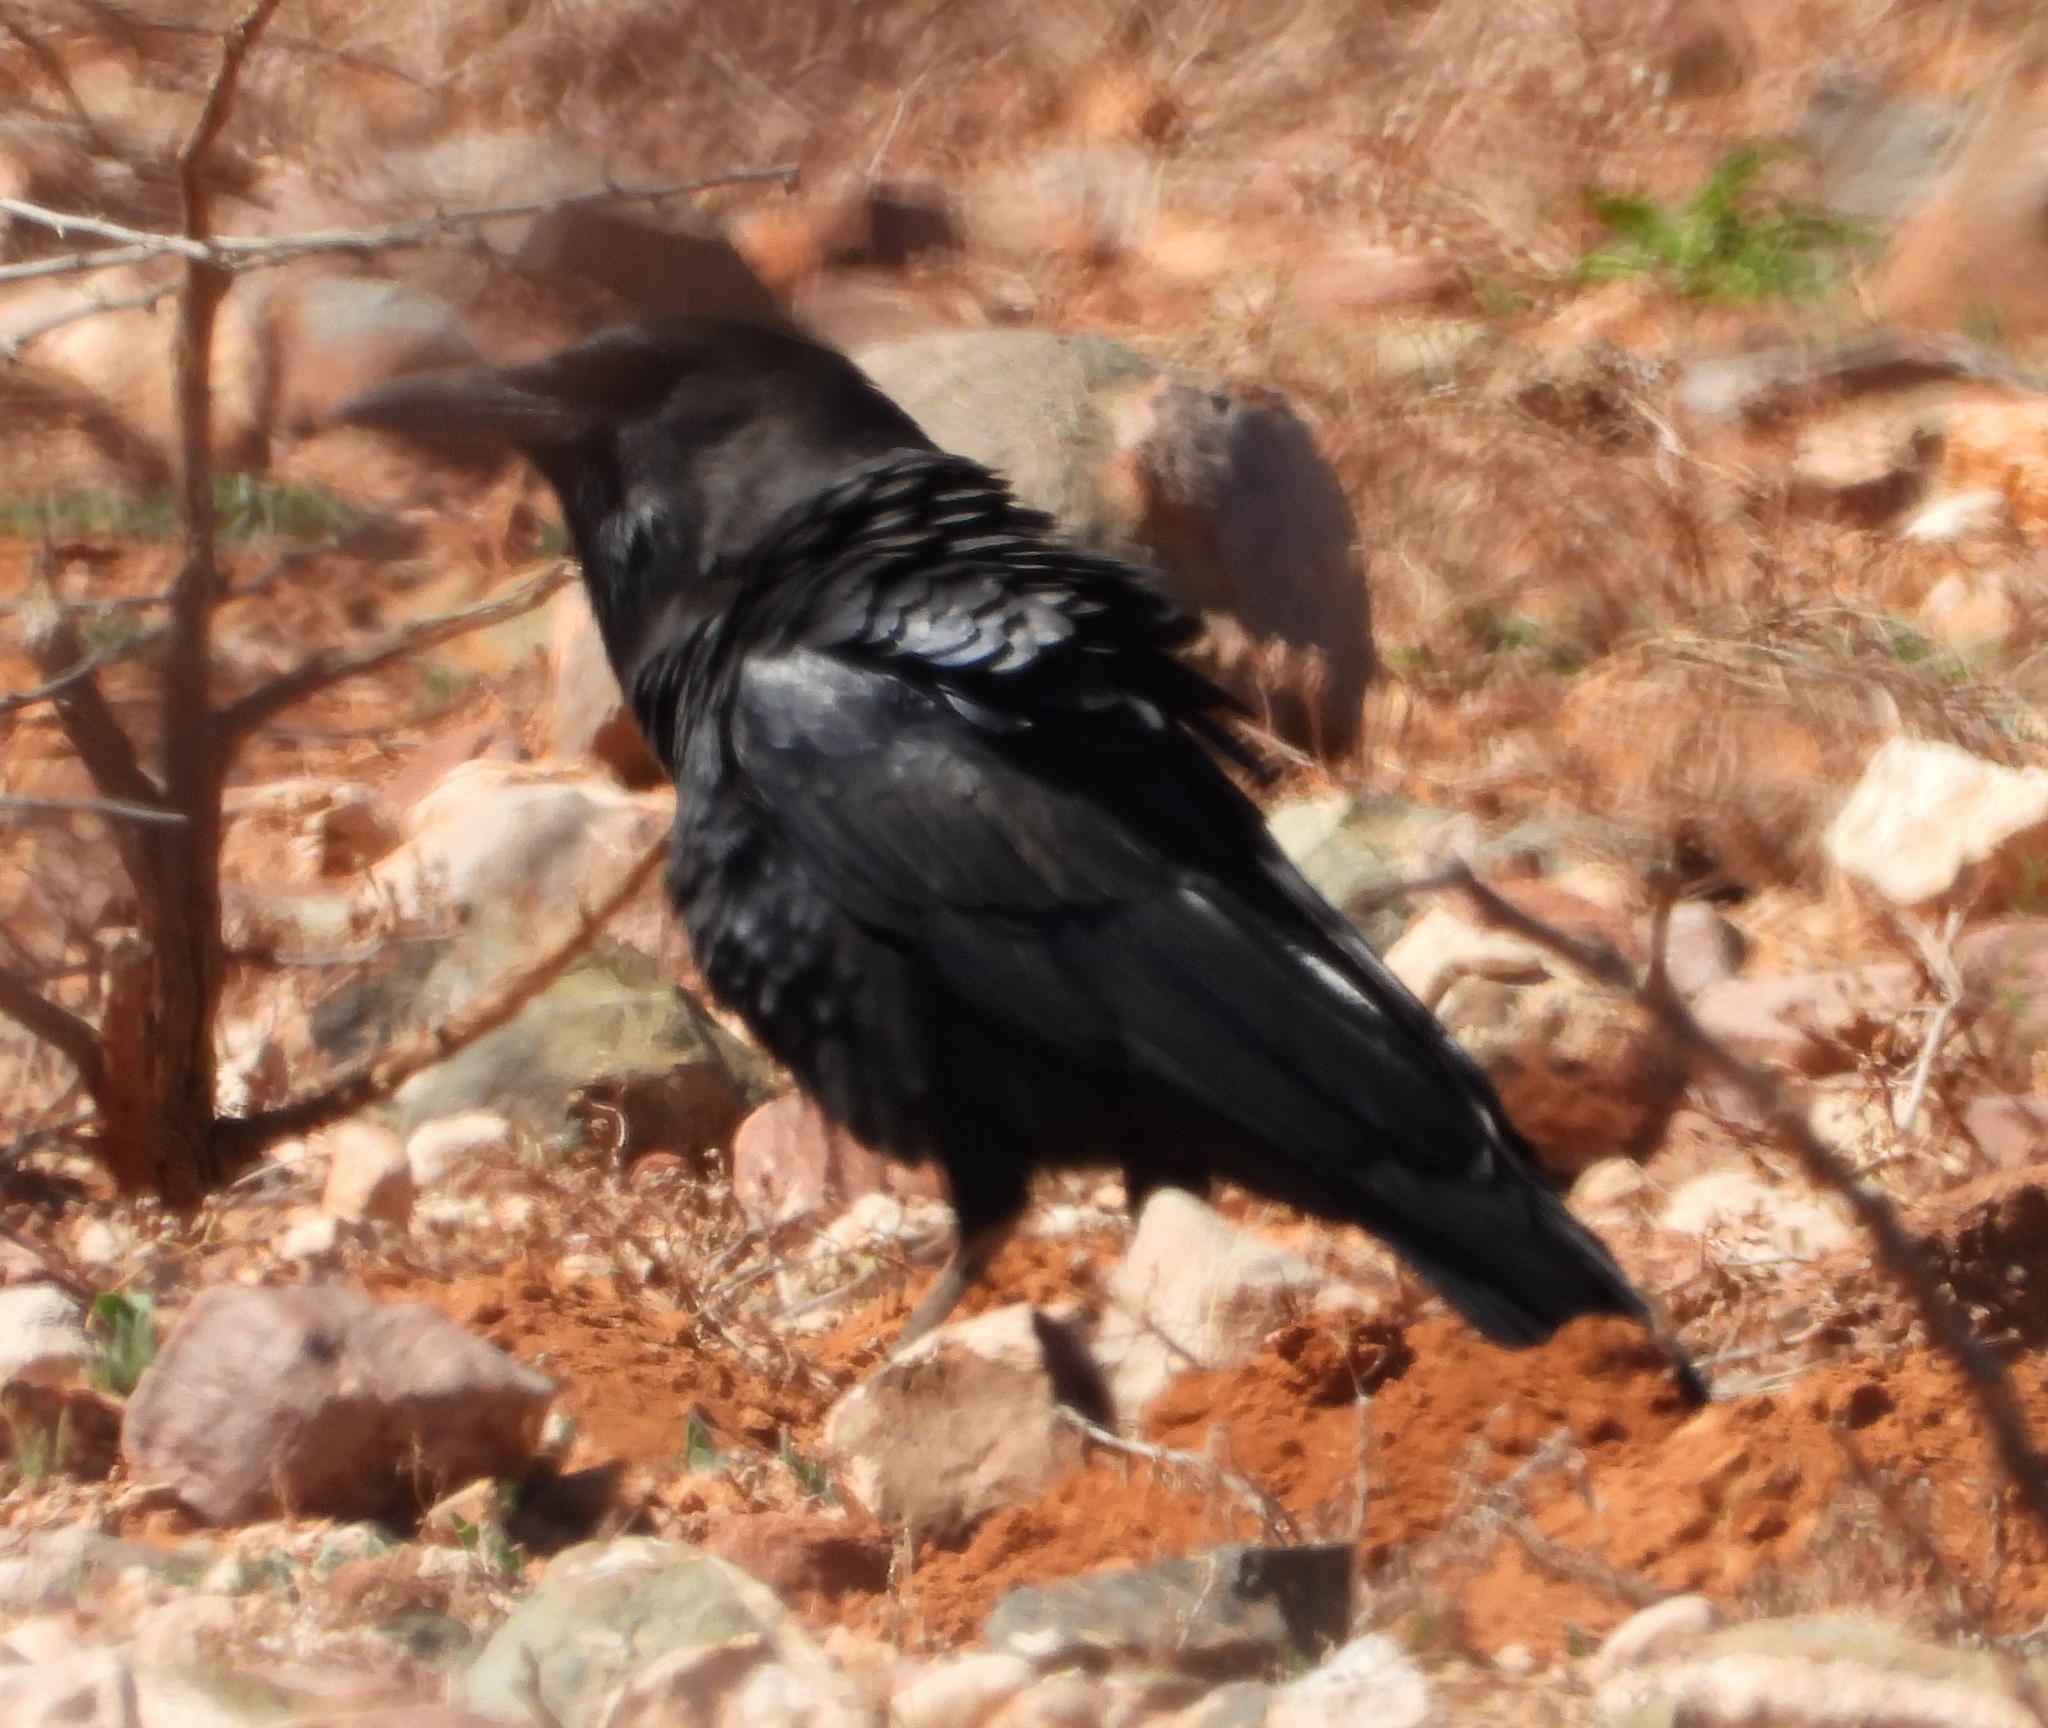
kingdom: Animalia
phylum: Chordata
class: Aves
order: Passeriformes
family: Corvidae
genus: Corvus
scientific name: Corvus capensis
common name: Cape crow
